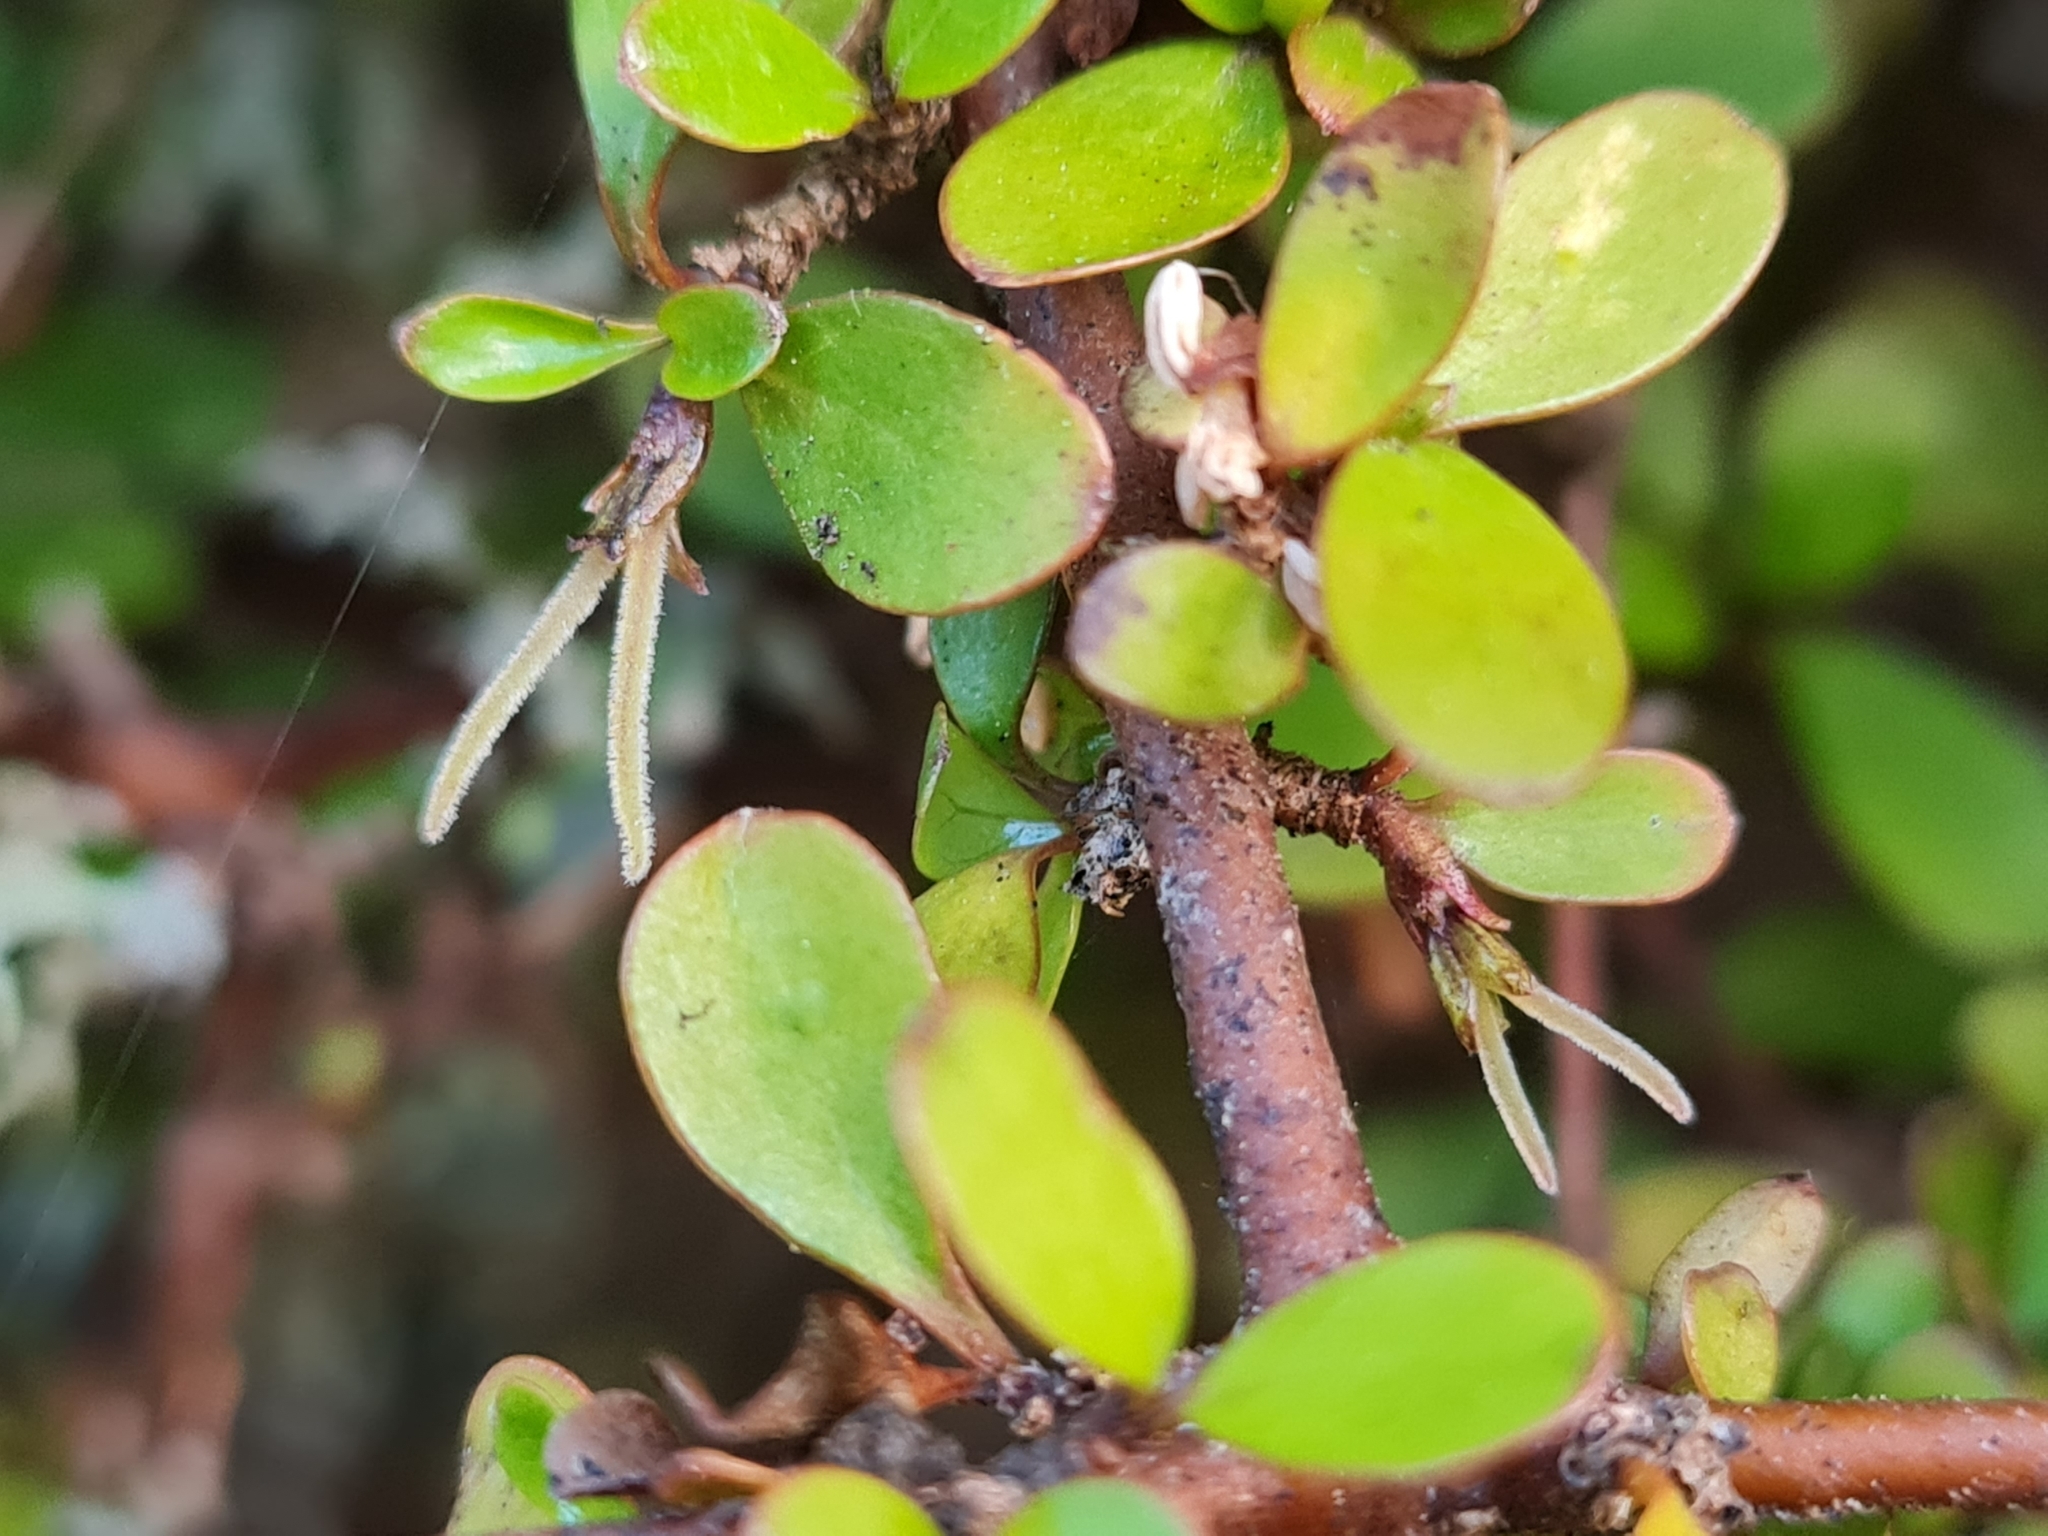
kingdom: Plantae
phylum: Tracheophyta
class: Magnoliopsida
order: Gentianales
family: Rubiaceae
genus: Coprosma
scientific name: Coprosma rigida
